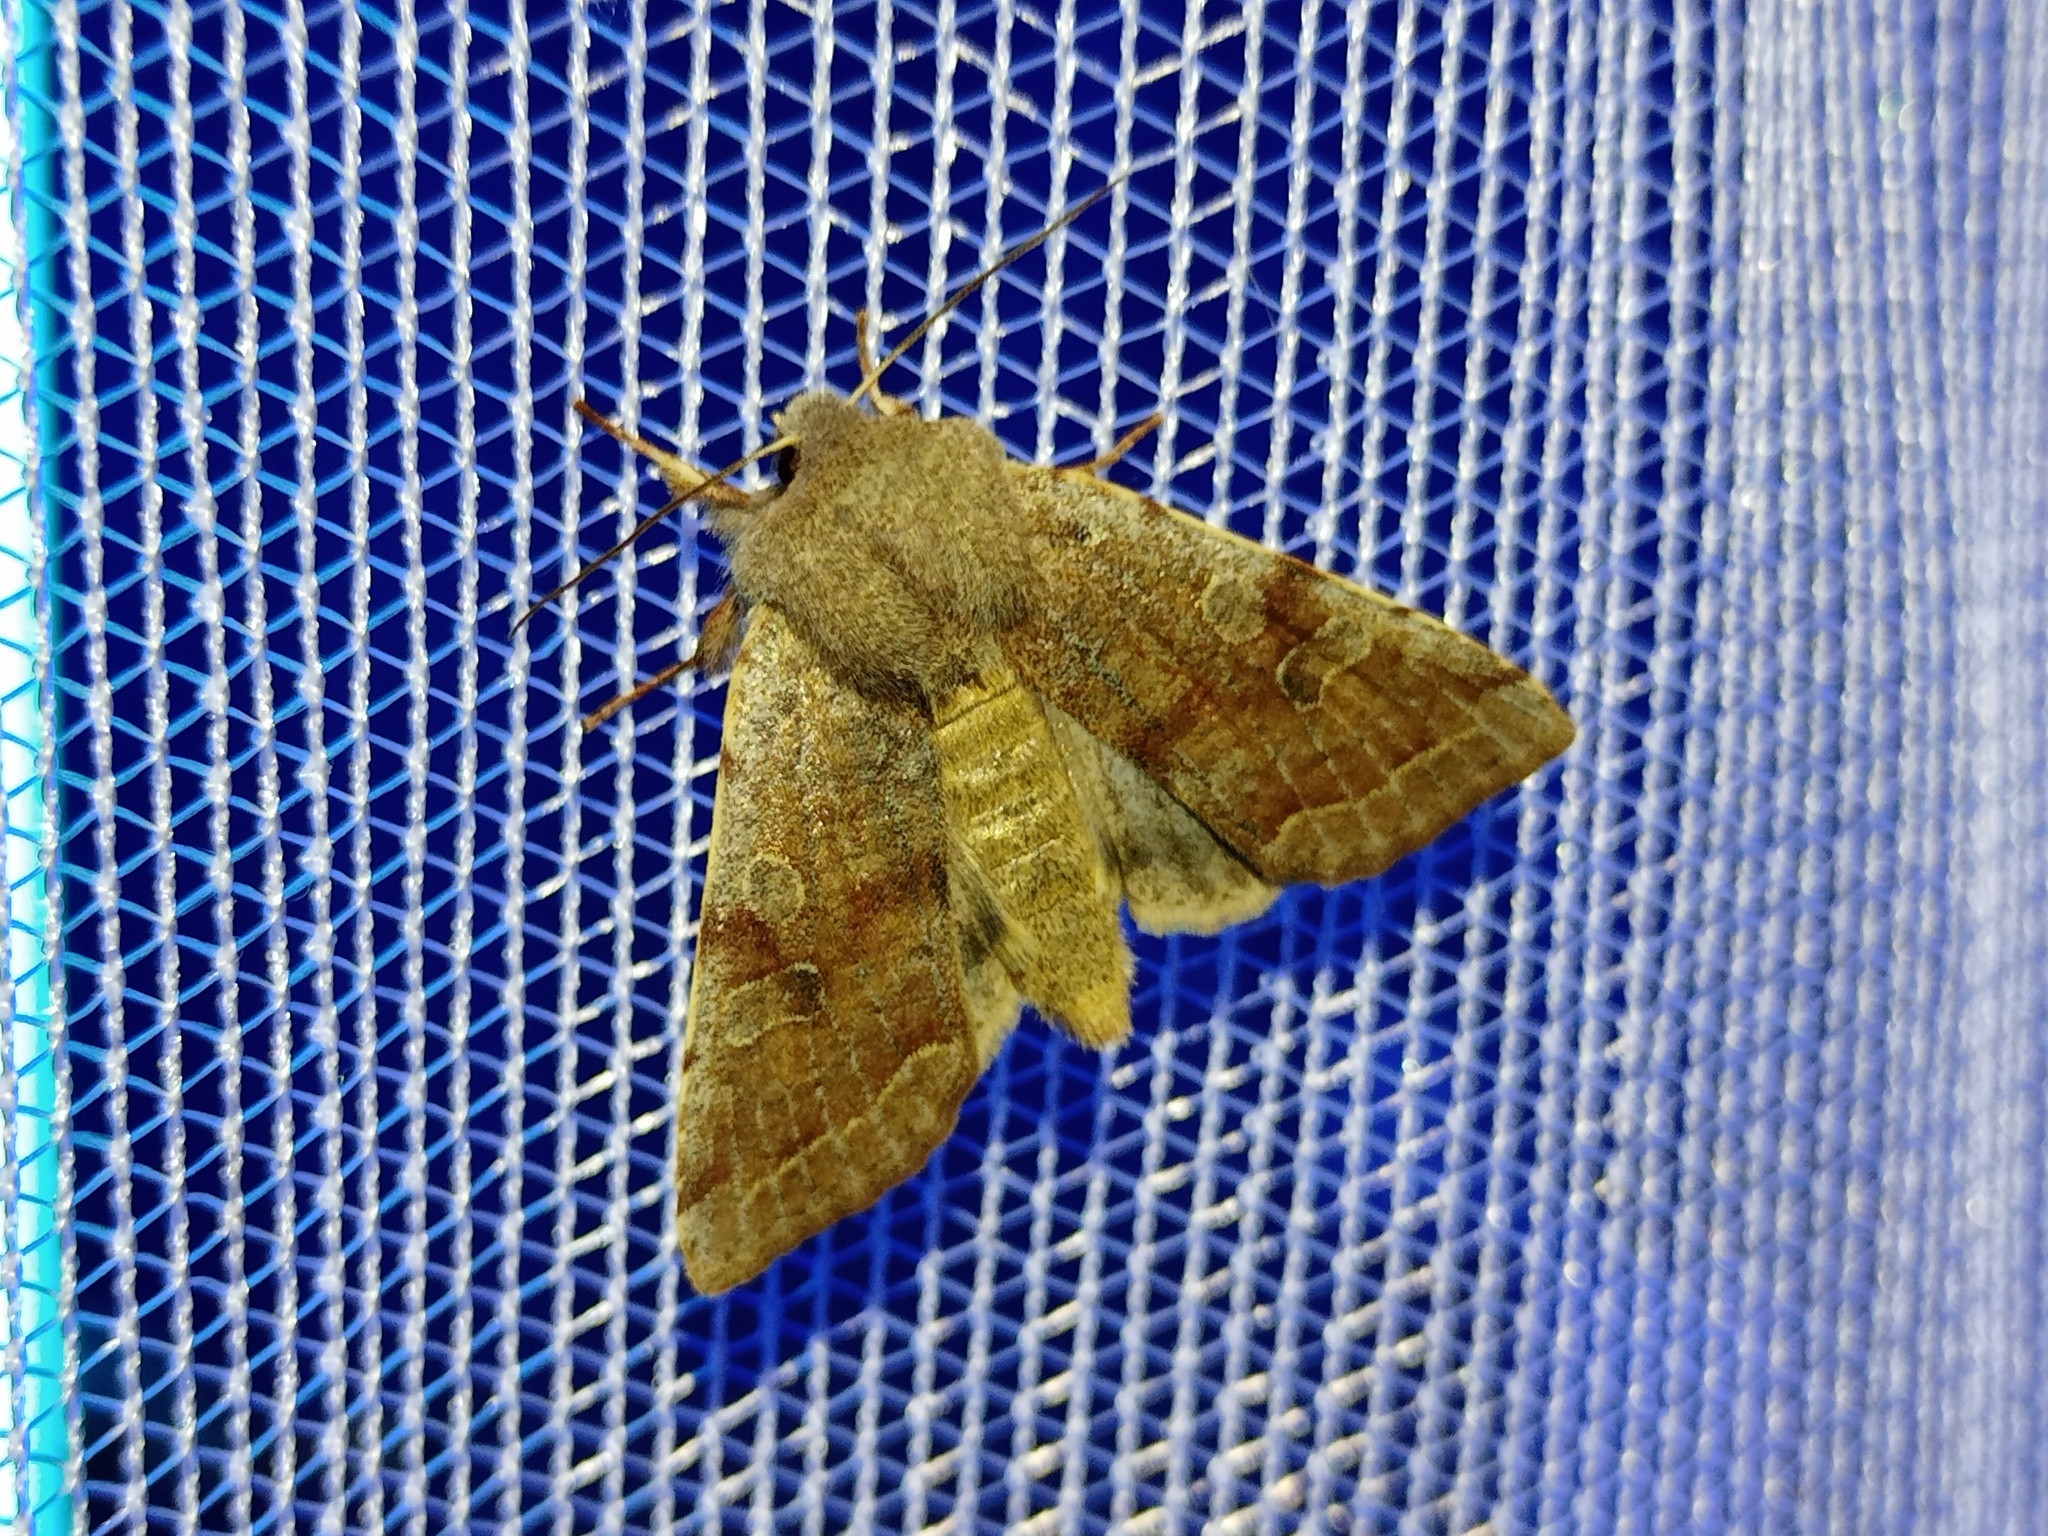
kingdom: Animalia
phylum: Arthropoda
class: Insecta
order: Lepidoptera
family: Noctuidae
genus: Orthosia
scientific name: Orthosia incerta
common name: Clouded drab
